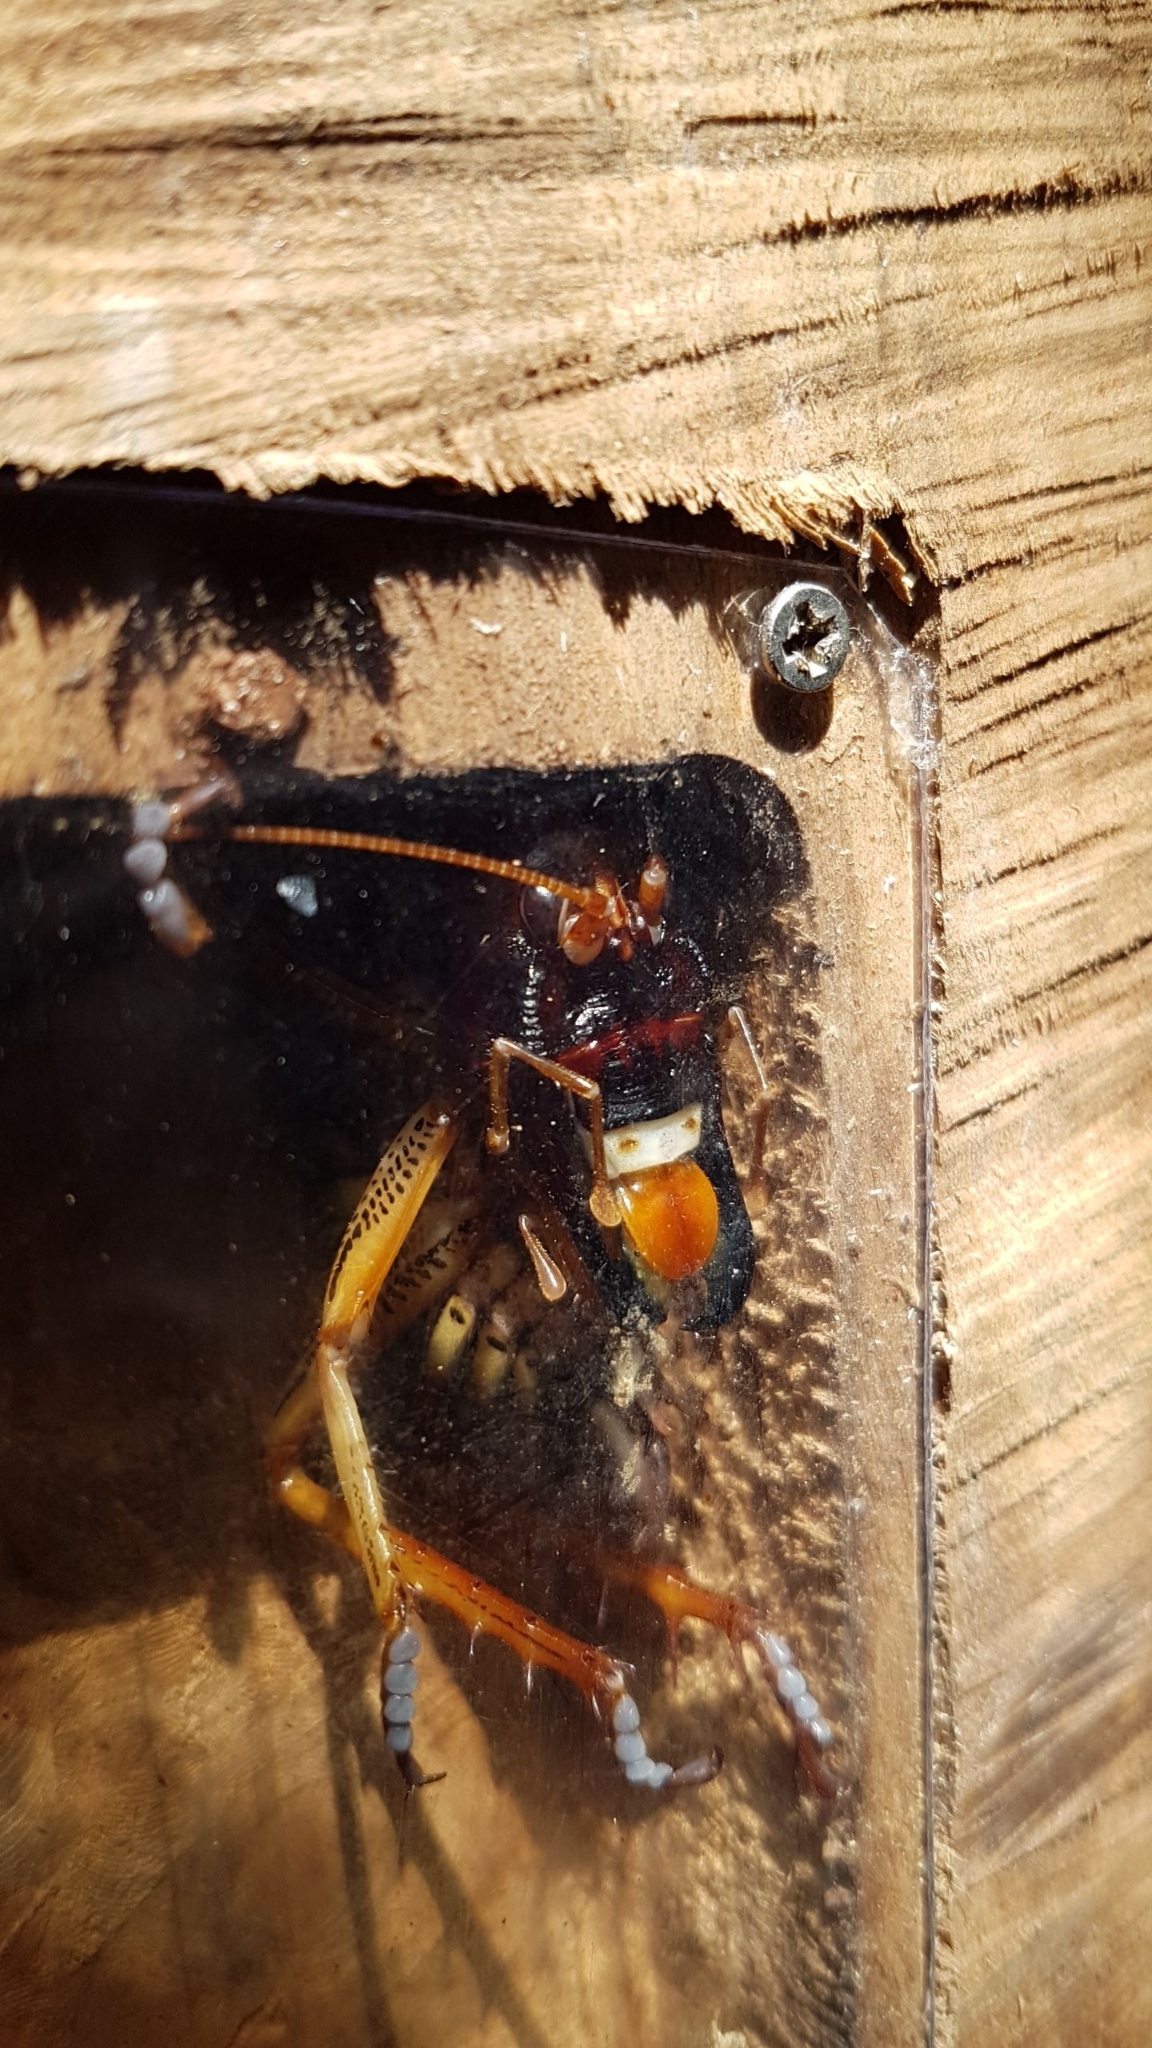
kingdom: Animalia
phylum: Arthropoda
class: Insecta
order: Orthoptera
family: Anostostomatidae
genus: Hemideina
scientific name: Hemideina crassidens
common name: Wellington tree weta
